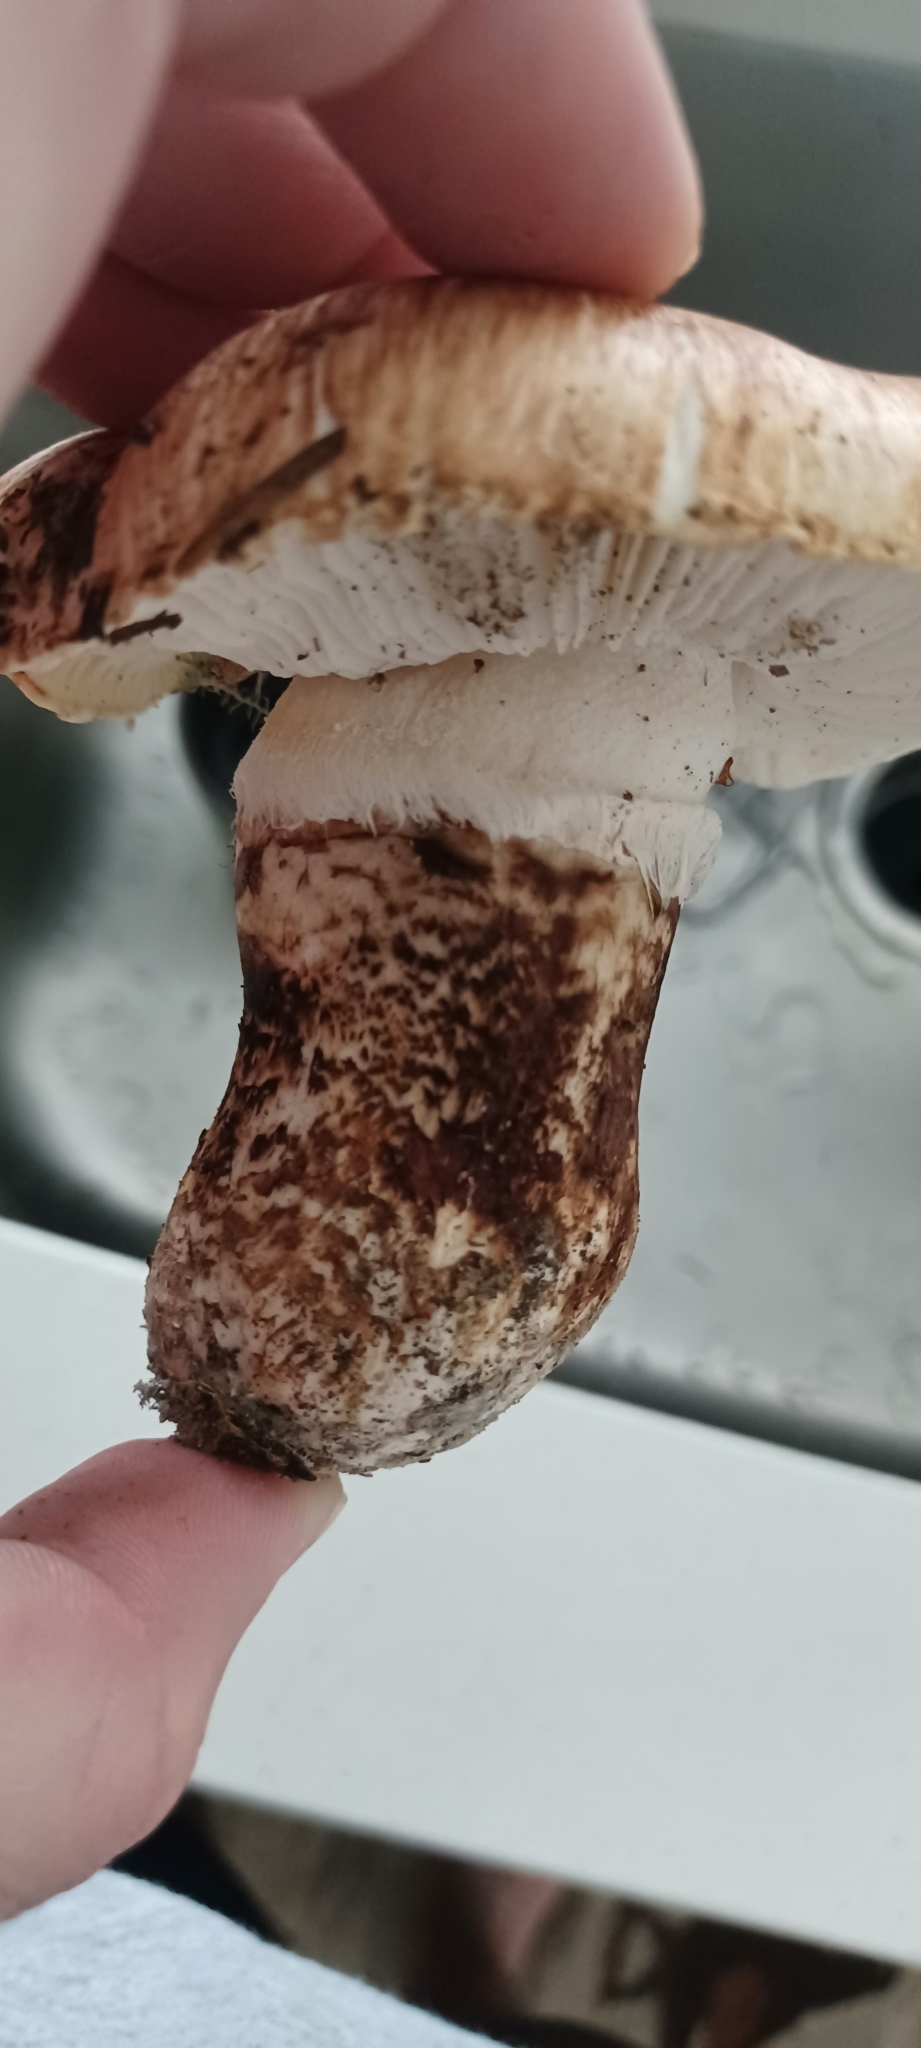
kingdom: Fungi
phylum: Basidiomycota
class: Agaricomycetes
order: Agaricales
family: Tricholomataceae
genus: Tricholoma
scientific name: Tricholoma caligatum
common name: True booted knight
